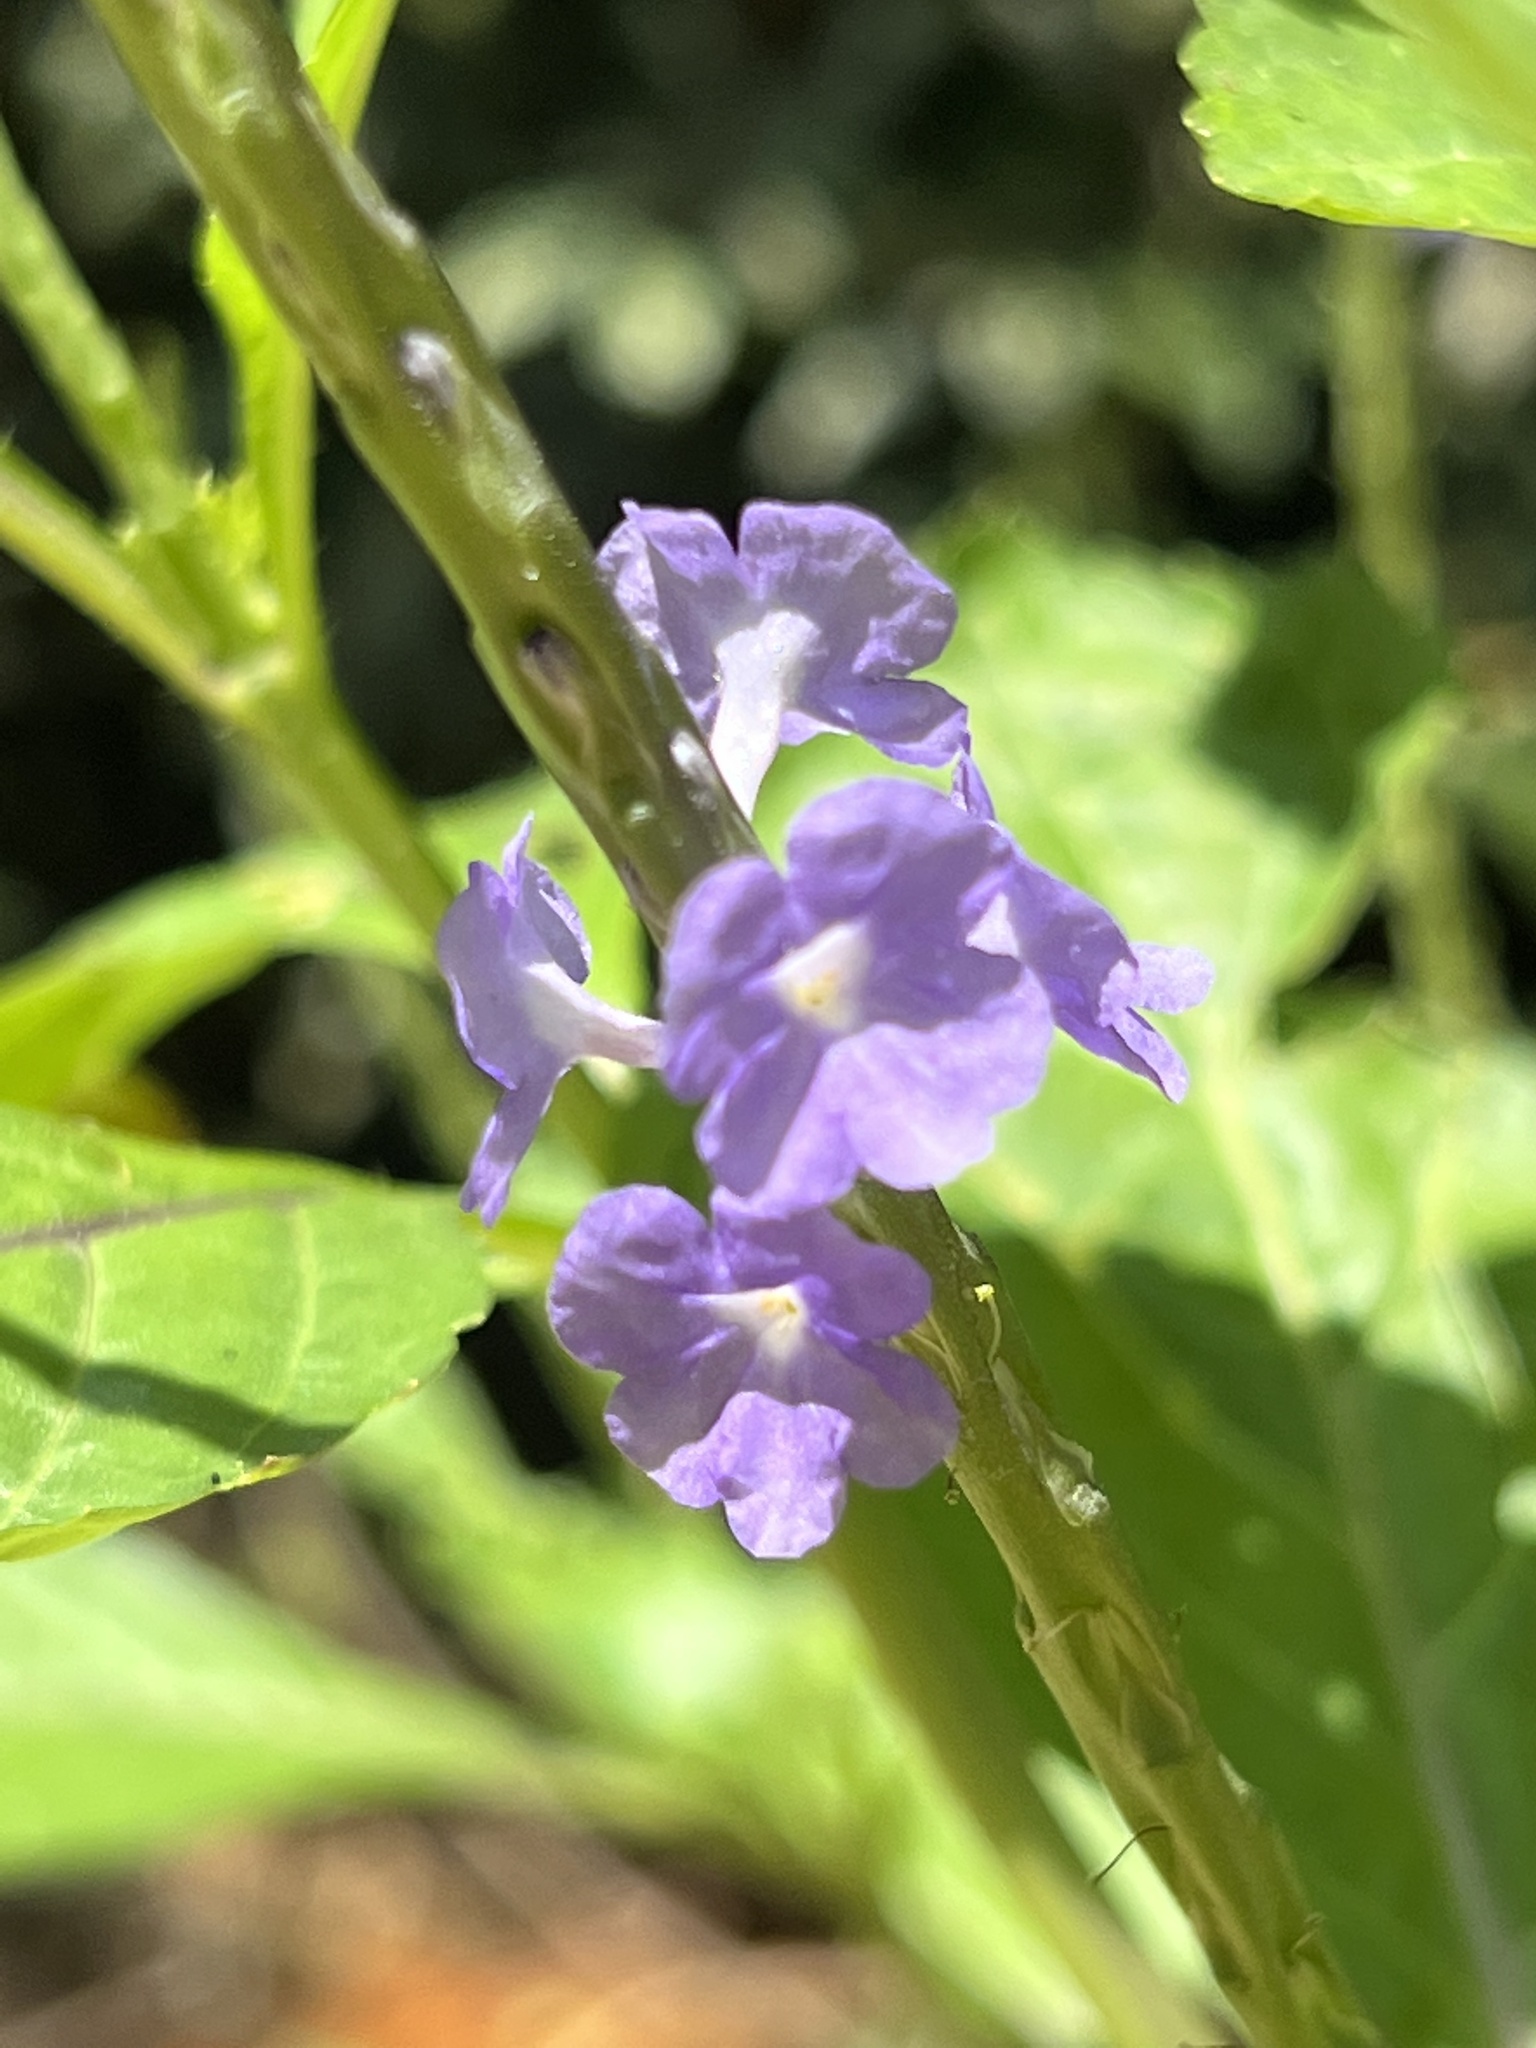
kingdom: Plantae
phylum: Tracheophyta
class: Magnoliopsida
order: Lamiales
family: Verbenaceae
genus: Stachytarpheta
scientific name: Stachytarpheta jamaicensis
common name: Light-blue snakeweed
